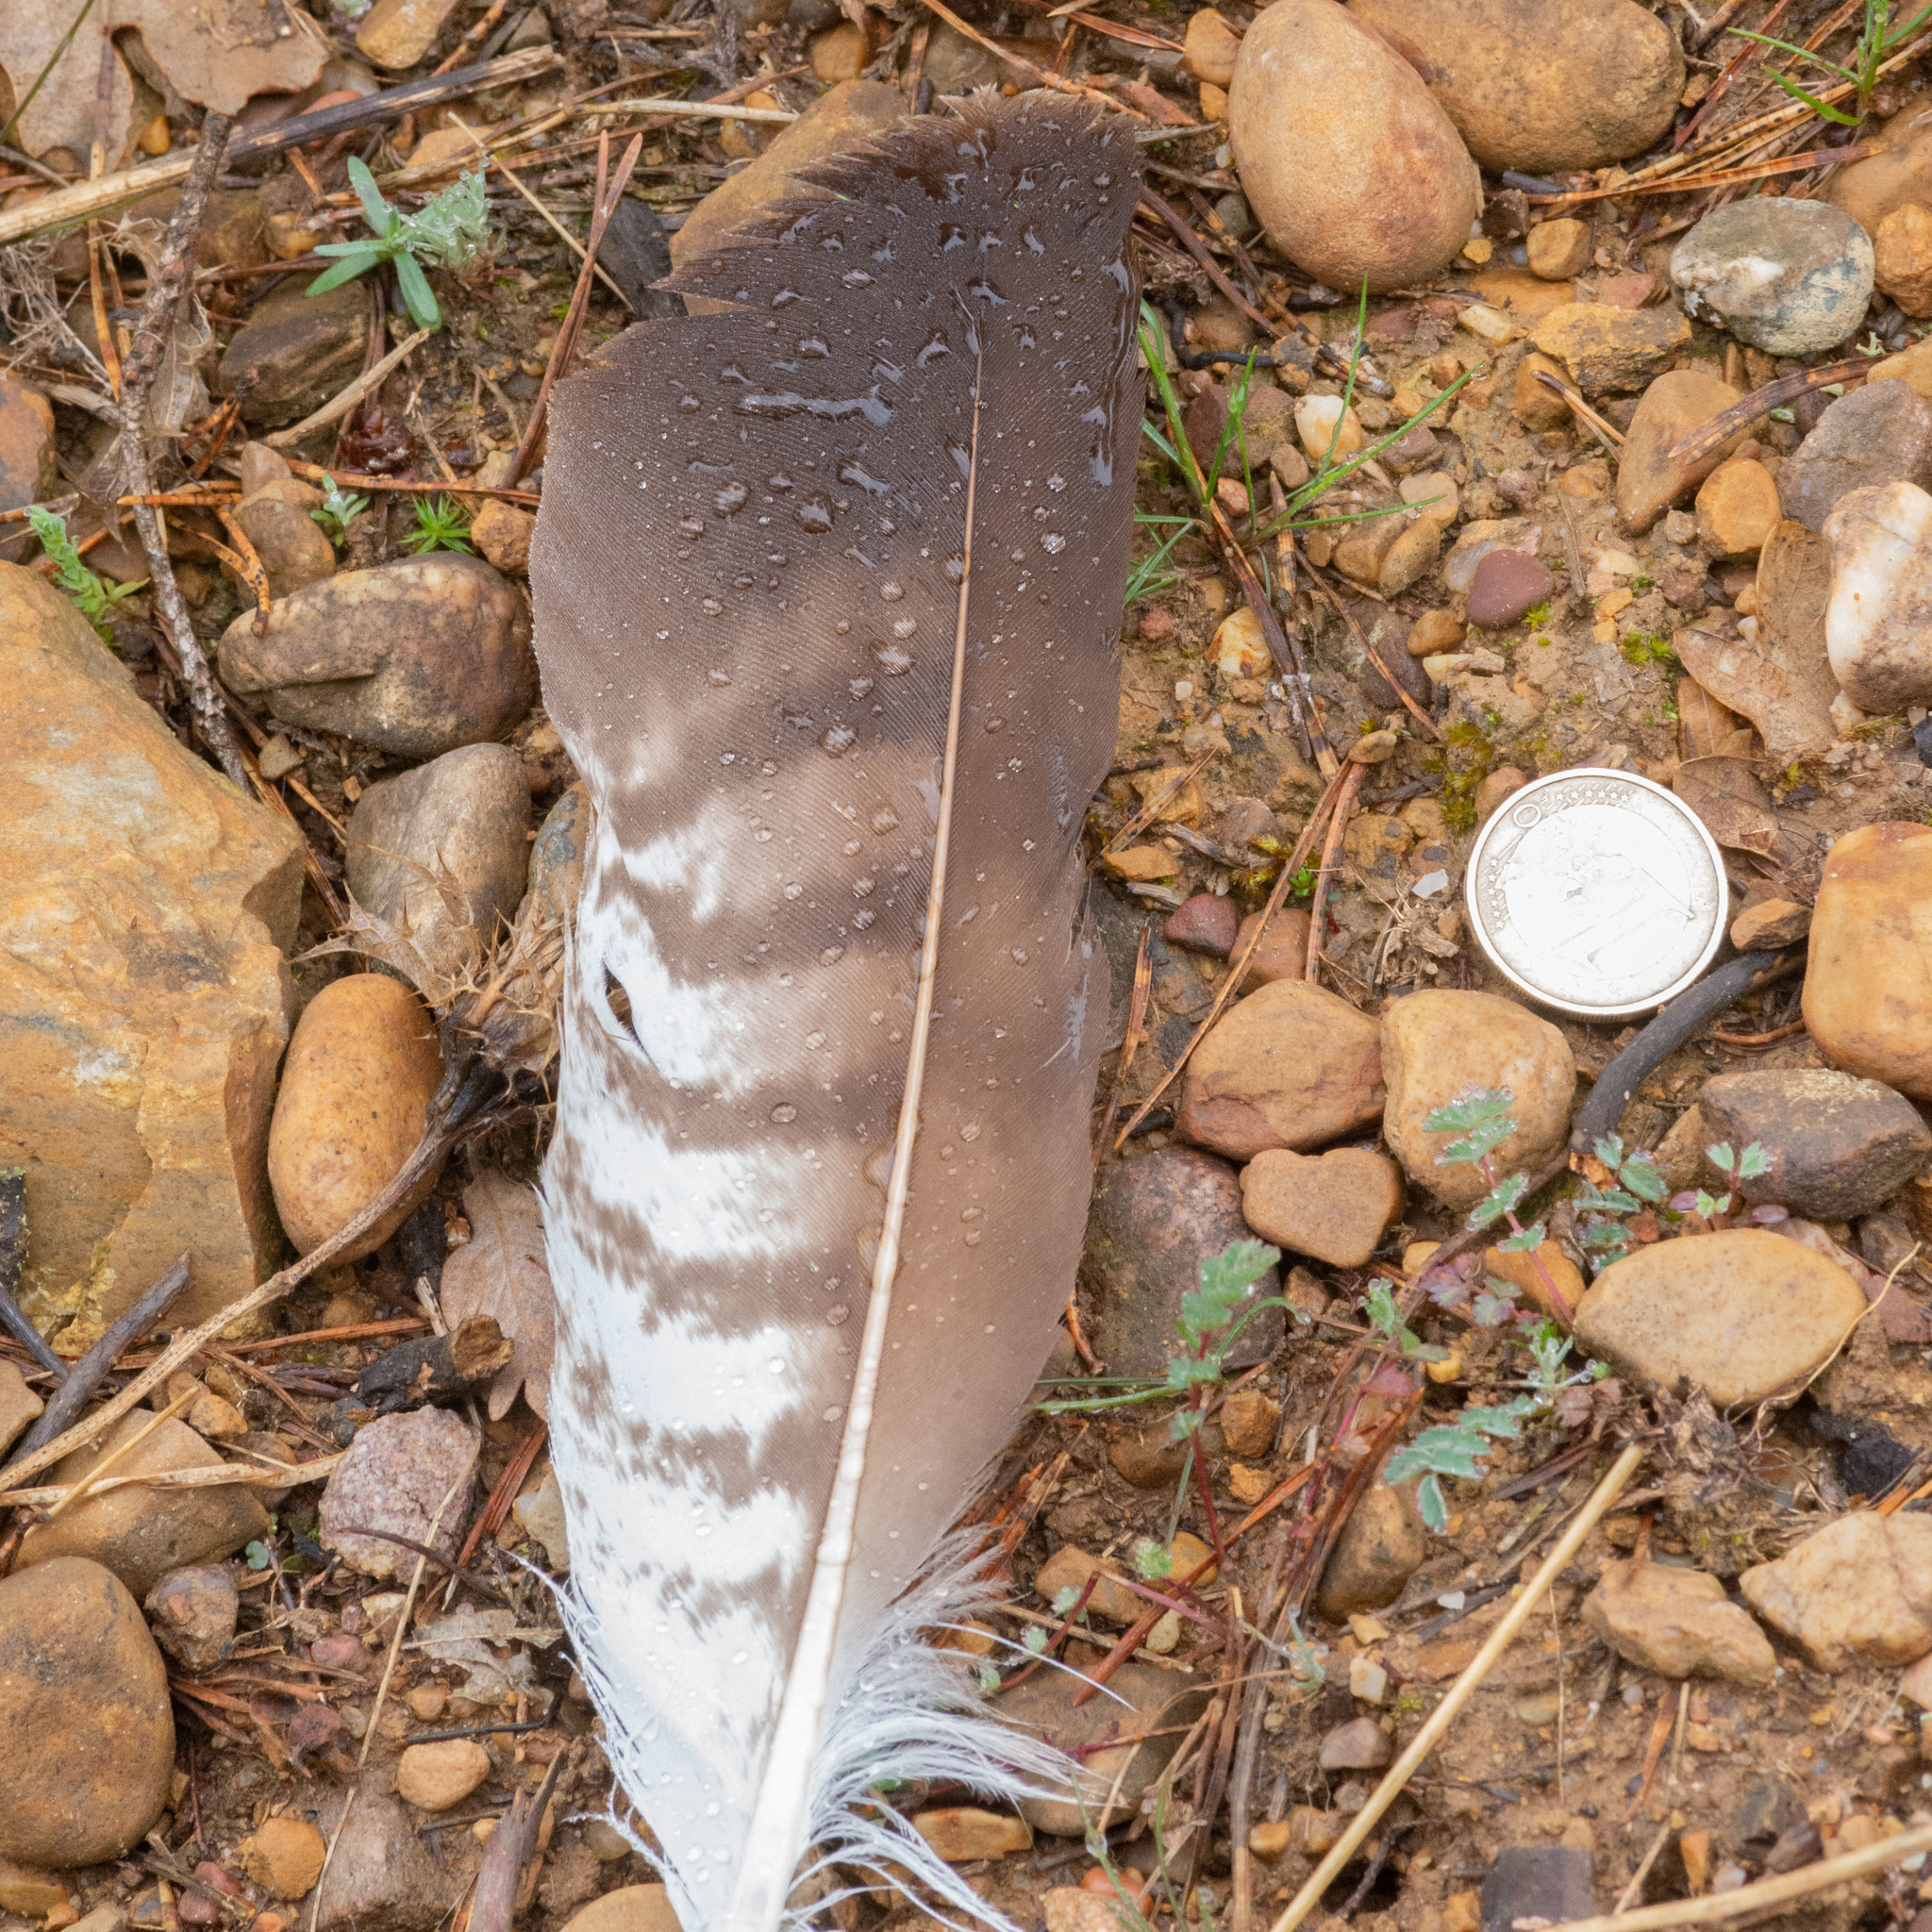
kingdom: Animalia
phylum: Chordata
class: Aves
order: Accipitriformes
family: Accipitridae
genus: Buteo
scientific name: Buteo buteo
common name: Common buzzard
